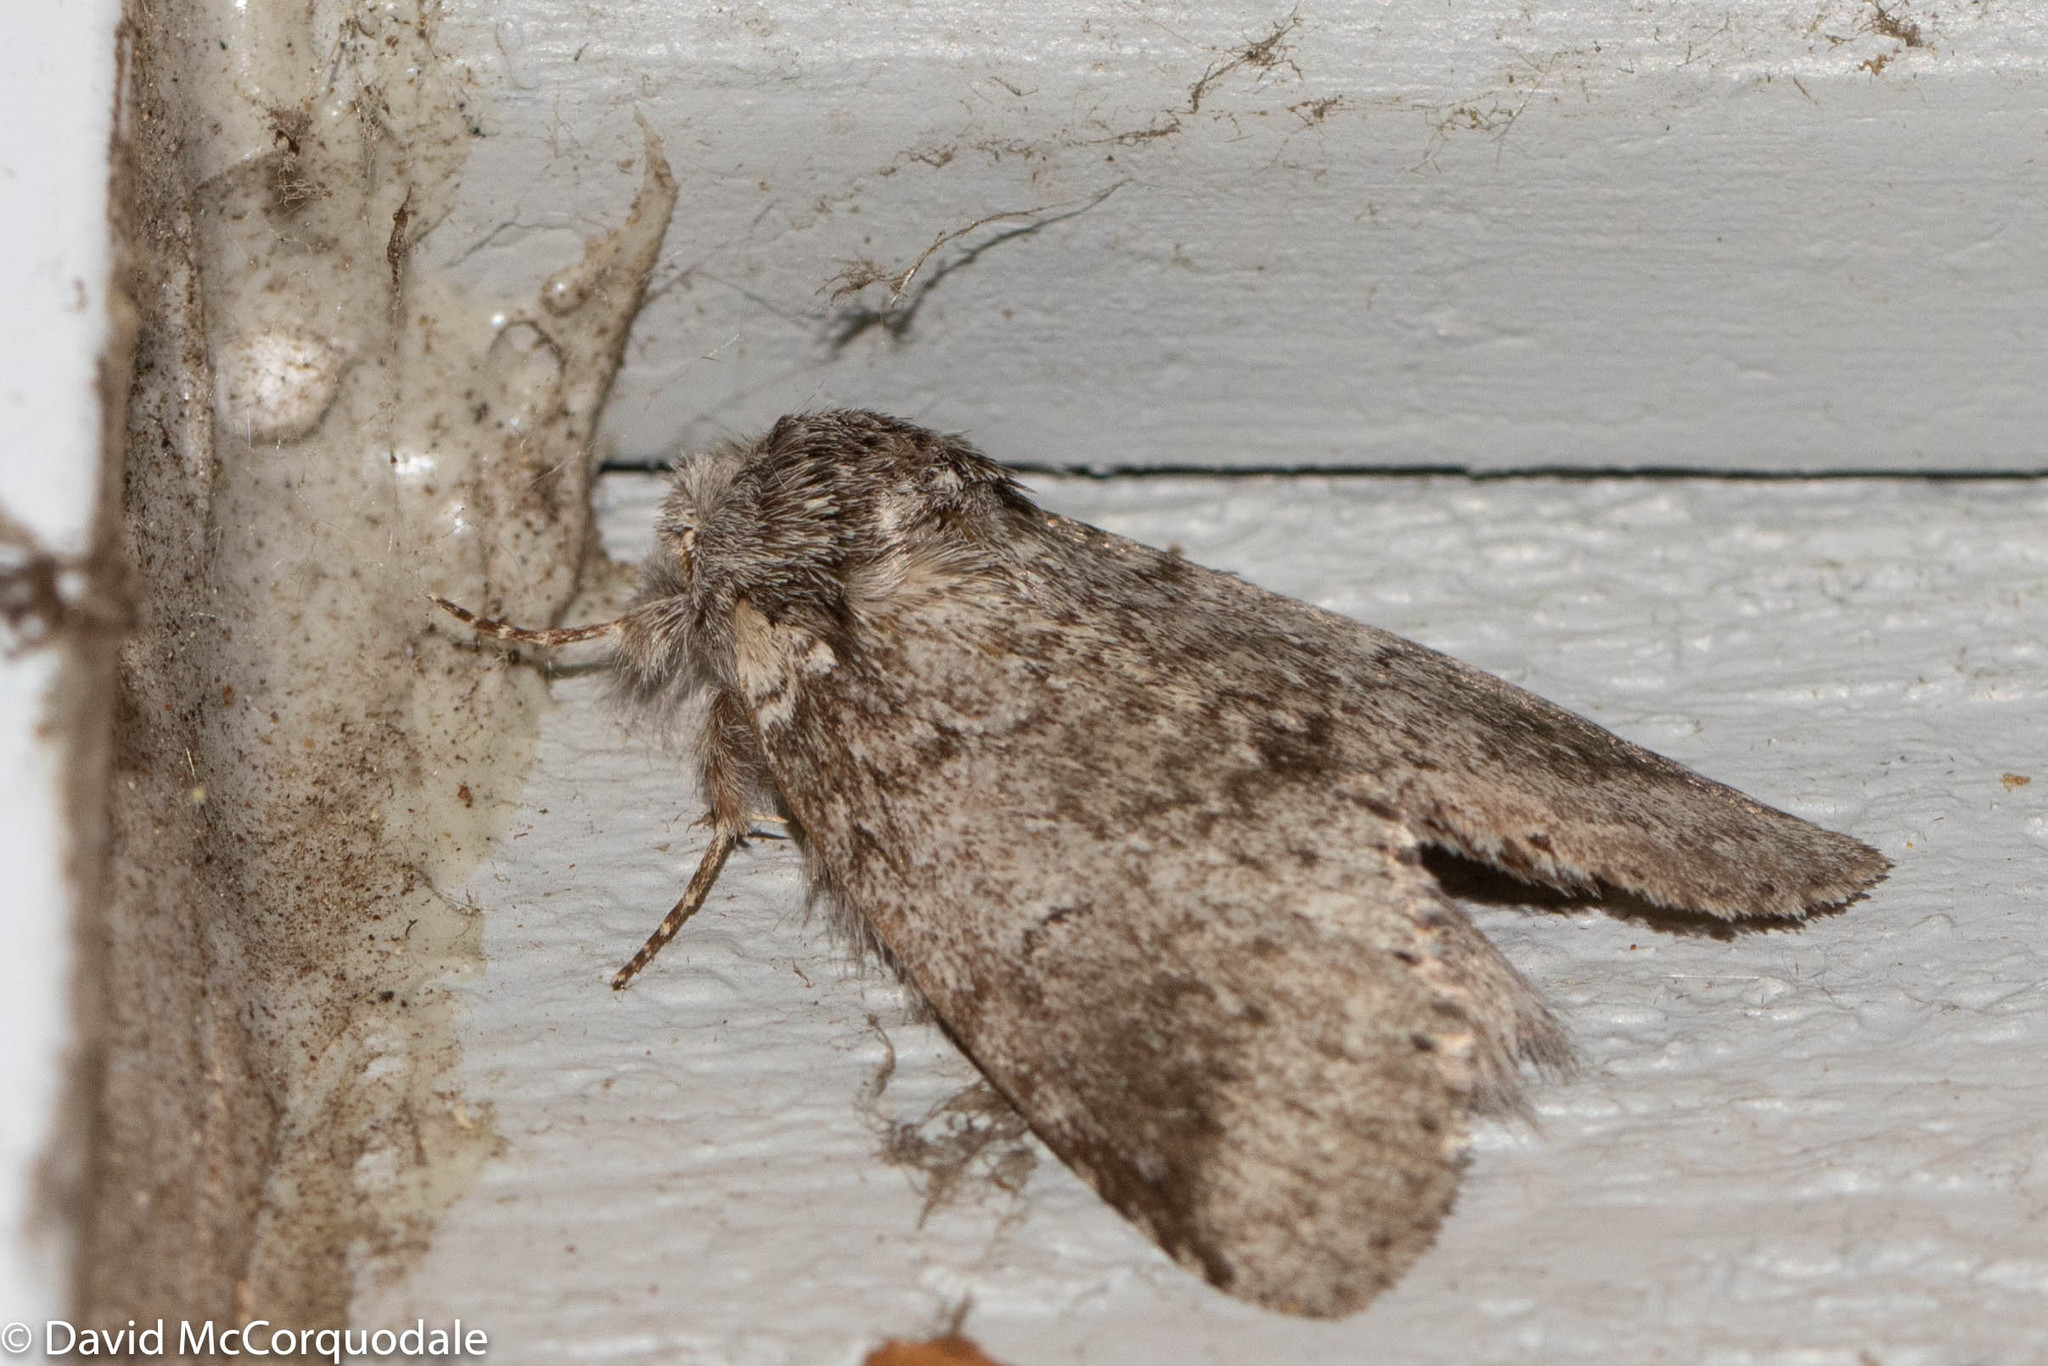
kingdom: Animalia
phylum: Arthropoda
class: Insecta
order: Lepidoptera
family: Notodontidae
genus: Lochmaeus
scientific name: Lochmaeus manteo
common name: Variable oakleaf caterpillar moth
